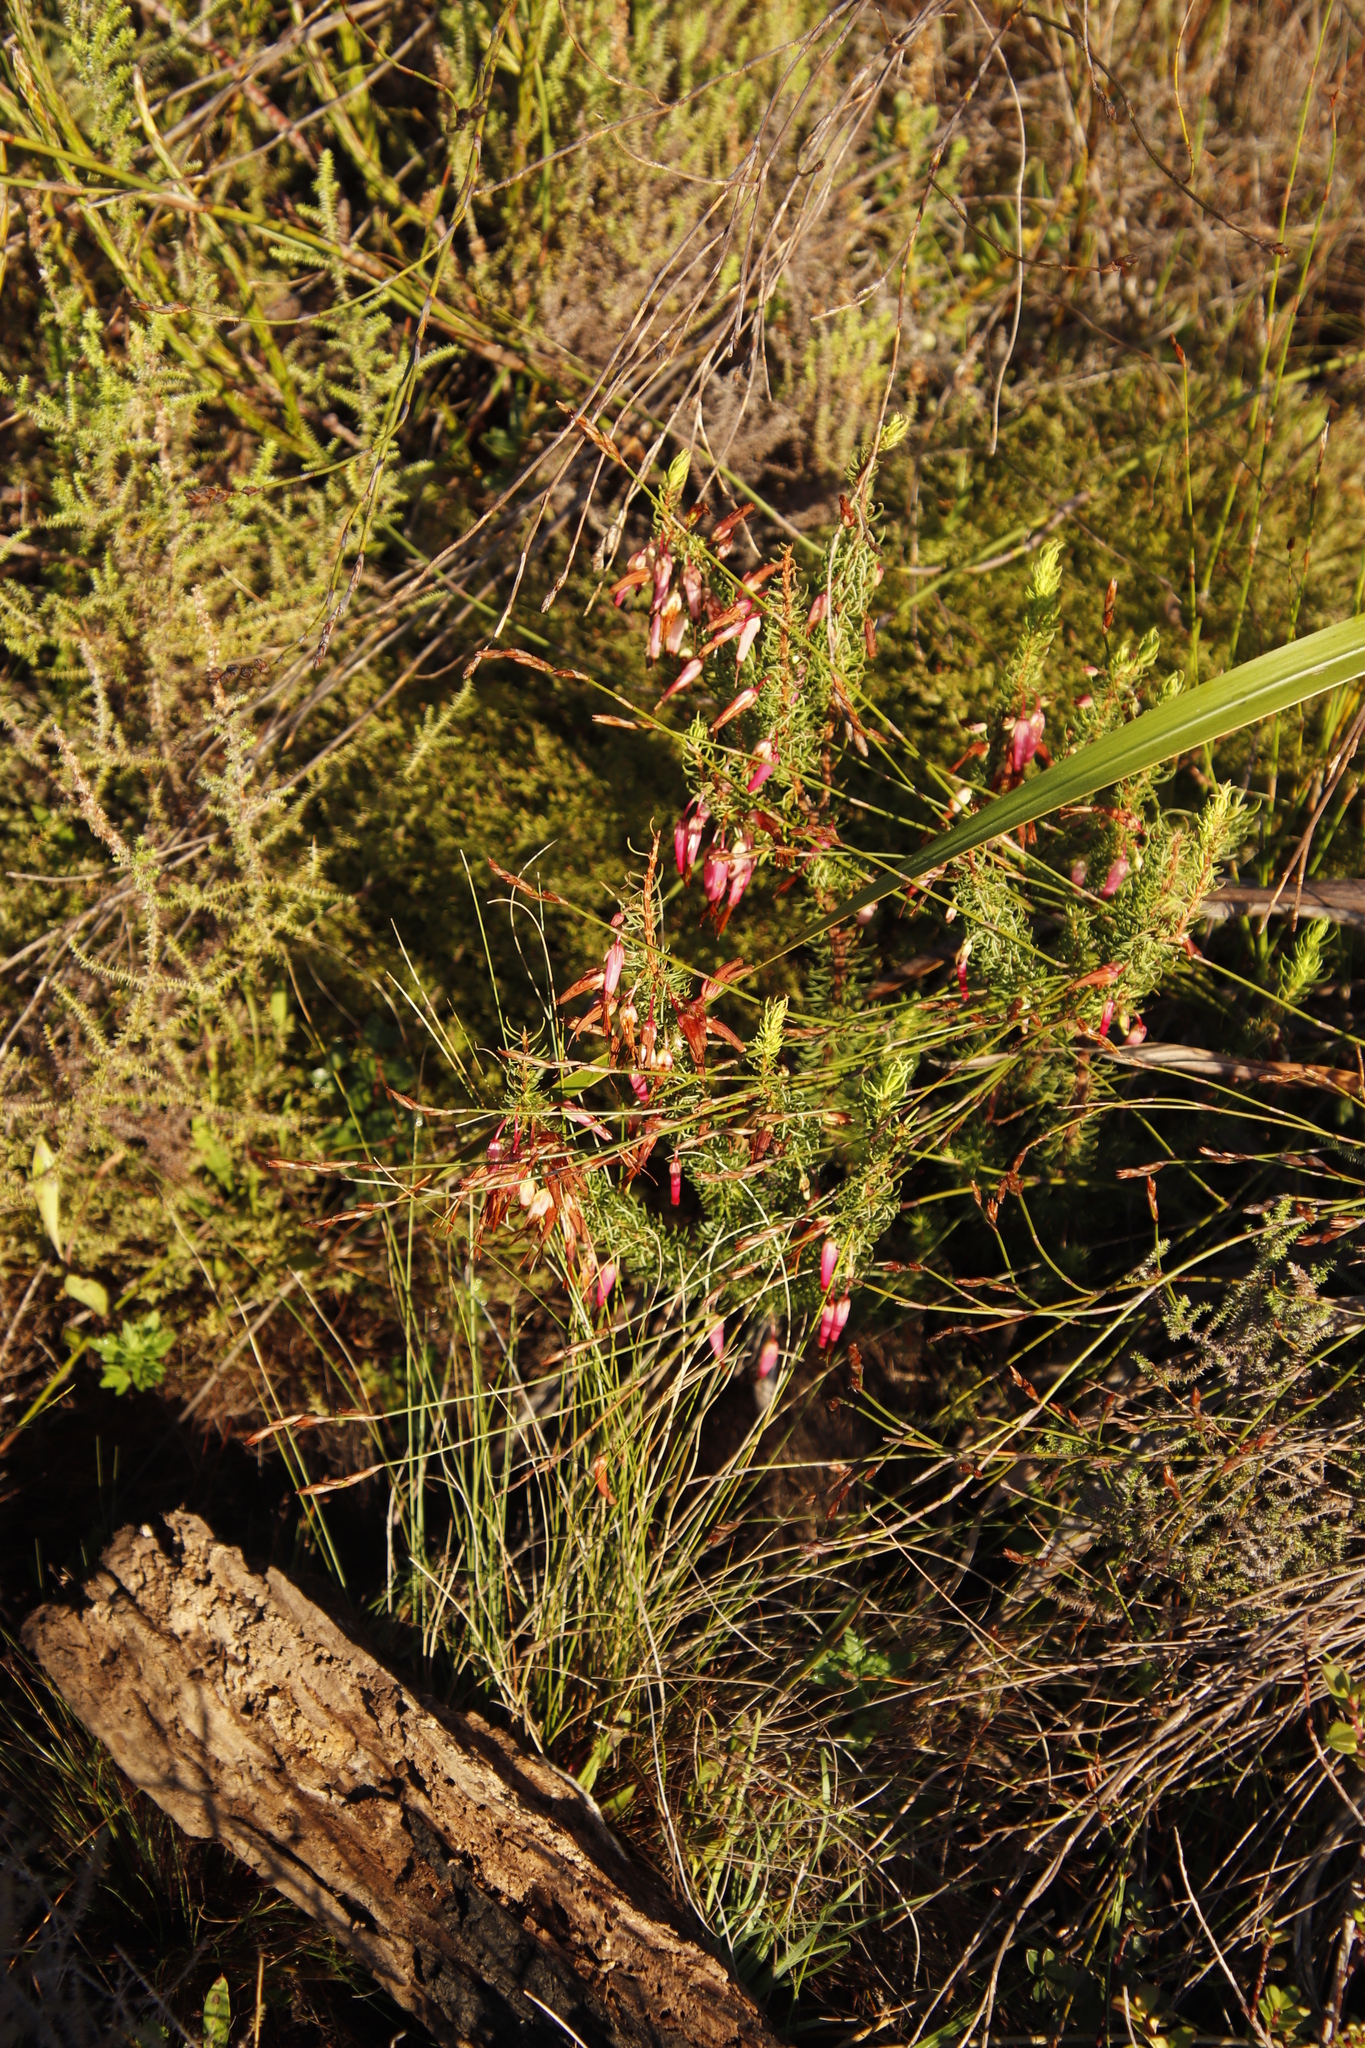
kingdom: Plantae
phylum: Tracheophyta
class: Magnoliopsida
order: Ericales
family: Ericaceae
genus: Erica
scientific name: Erica plukenetii
